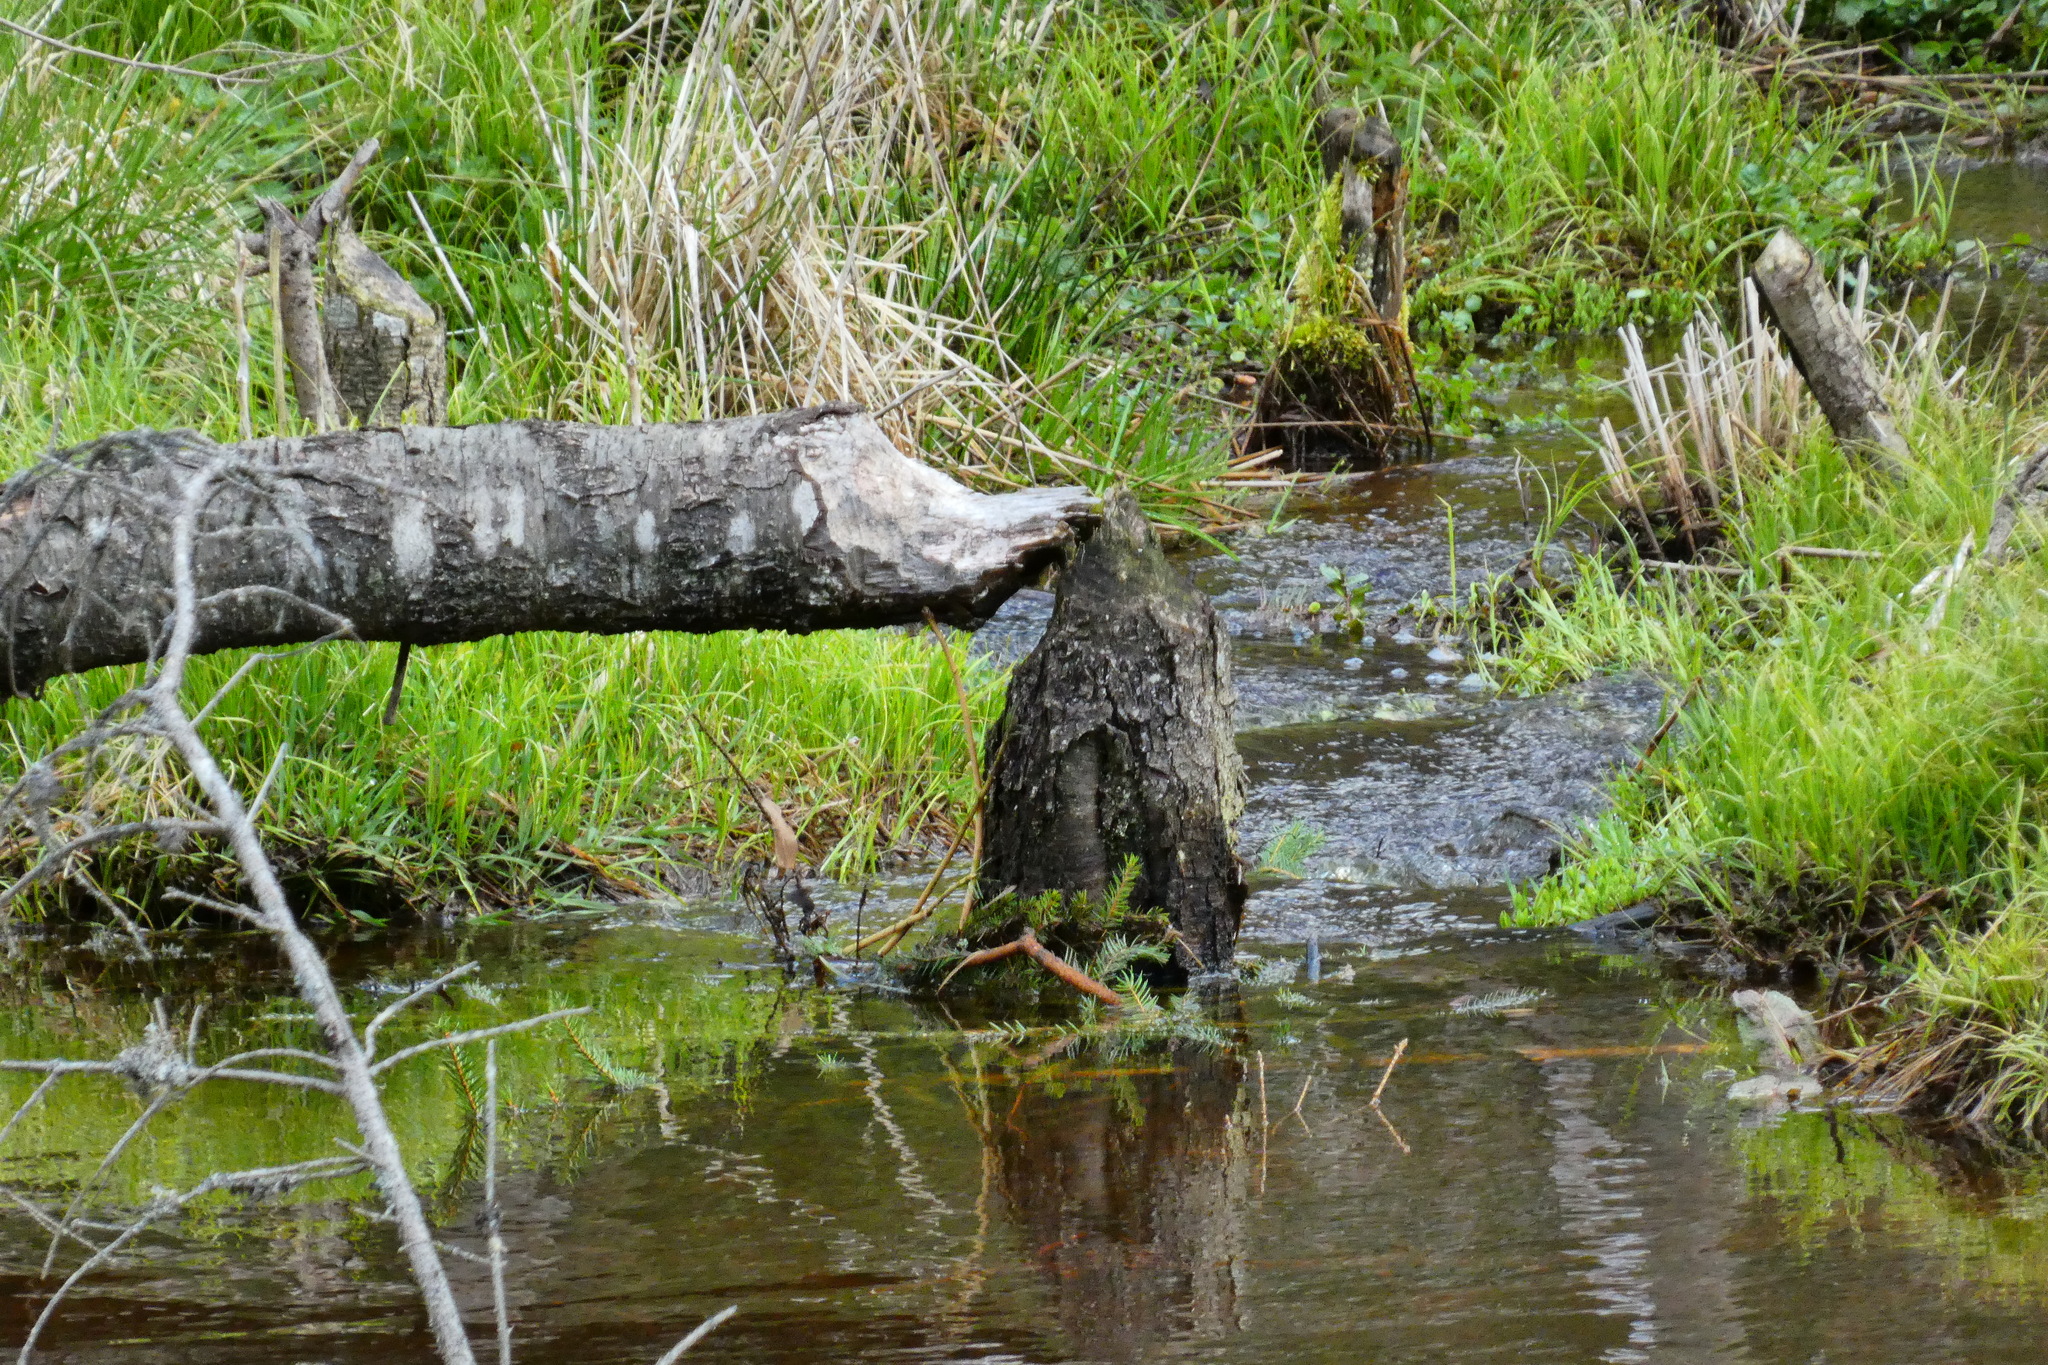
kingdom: Animalia
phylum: Chordata
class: Mammalia
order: Rodentia
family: Castoridae
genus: Castor
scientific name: Castor fiber
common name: Eurasian beaver
